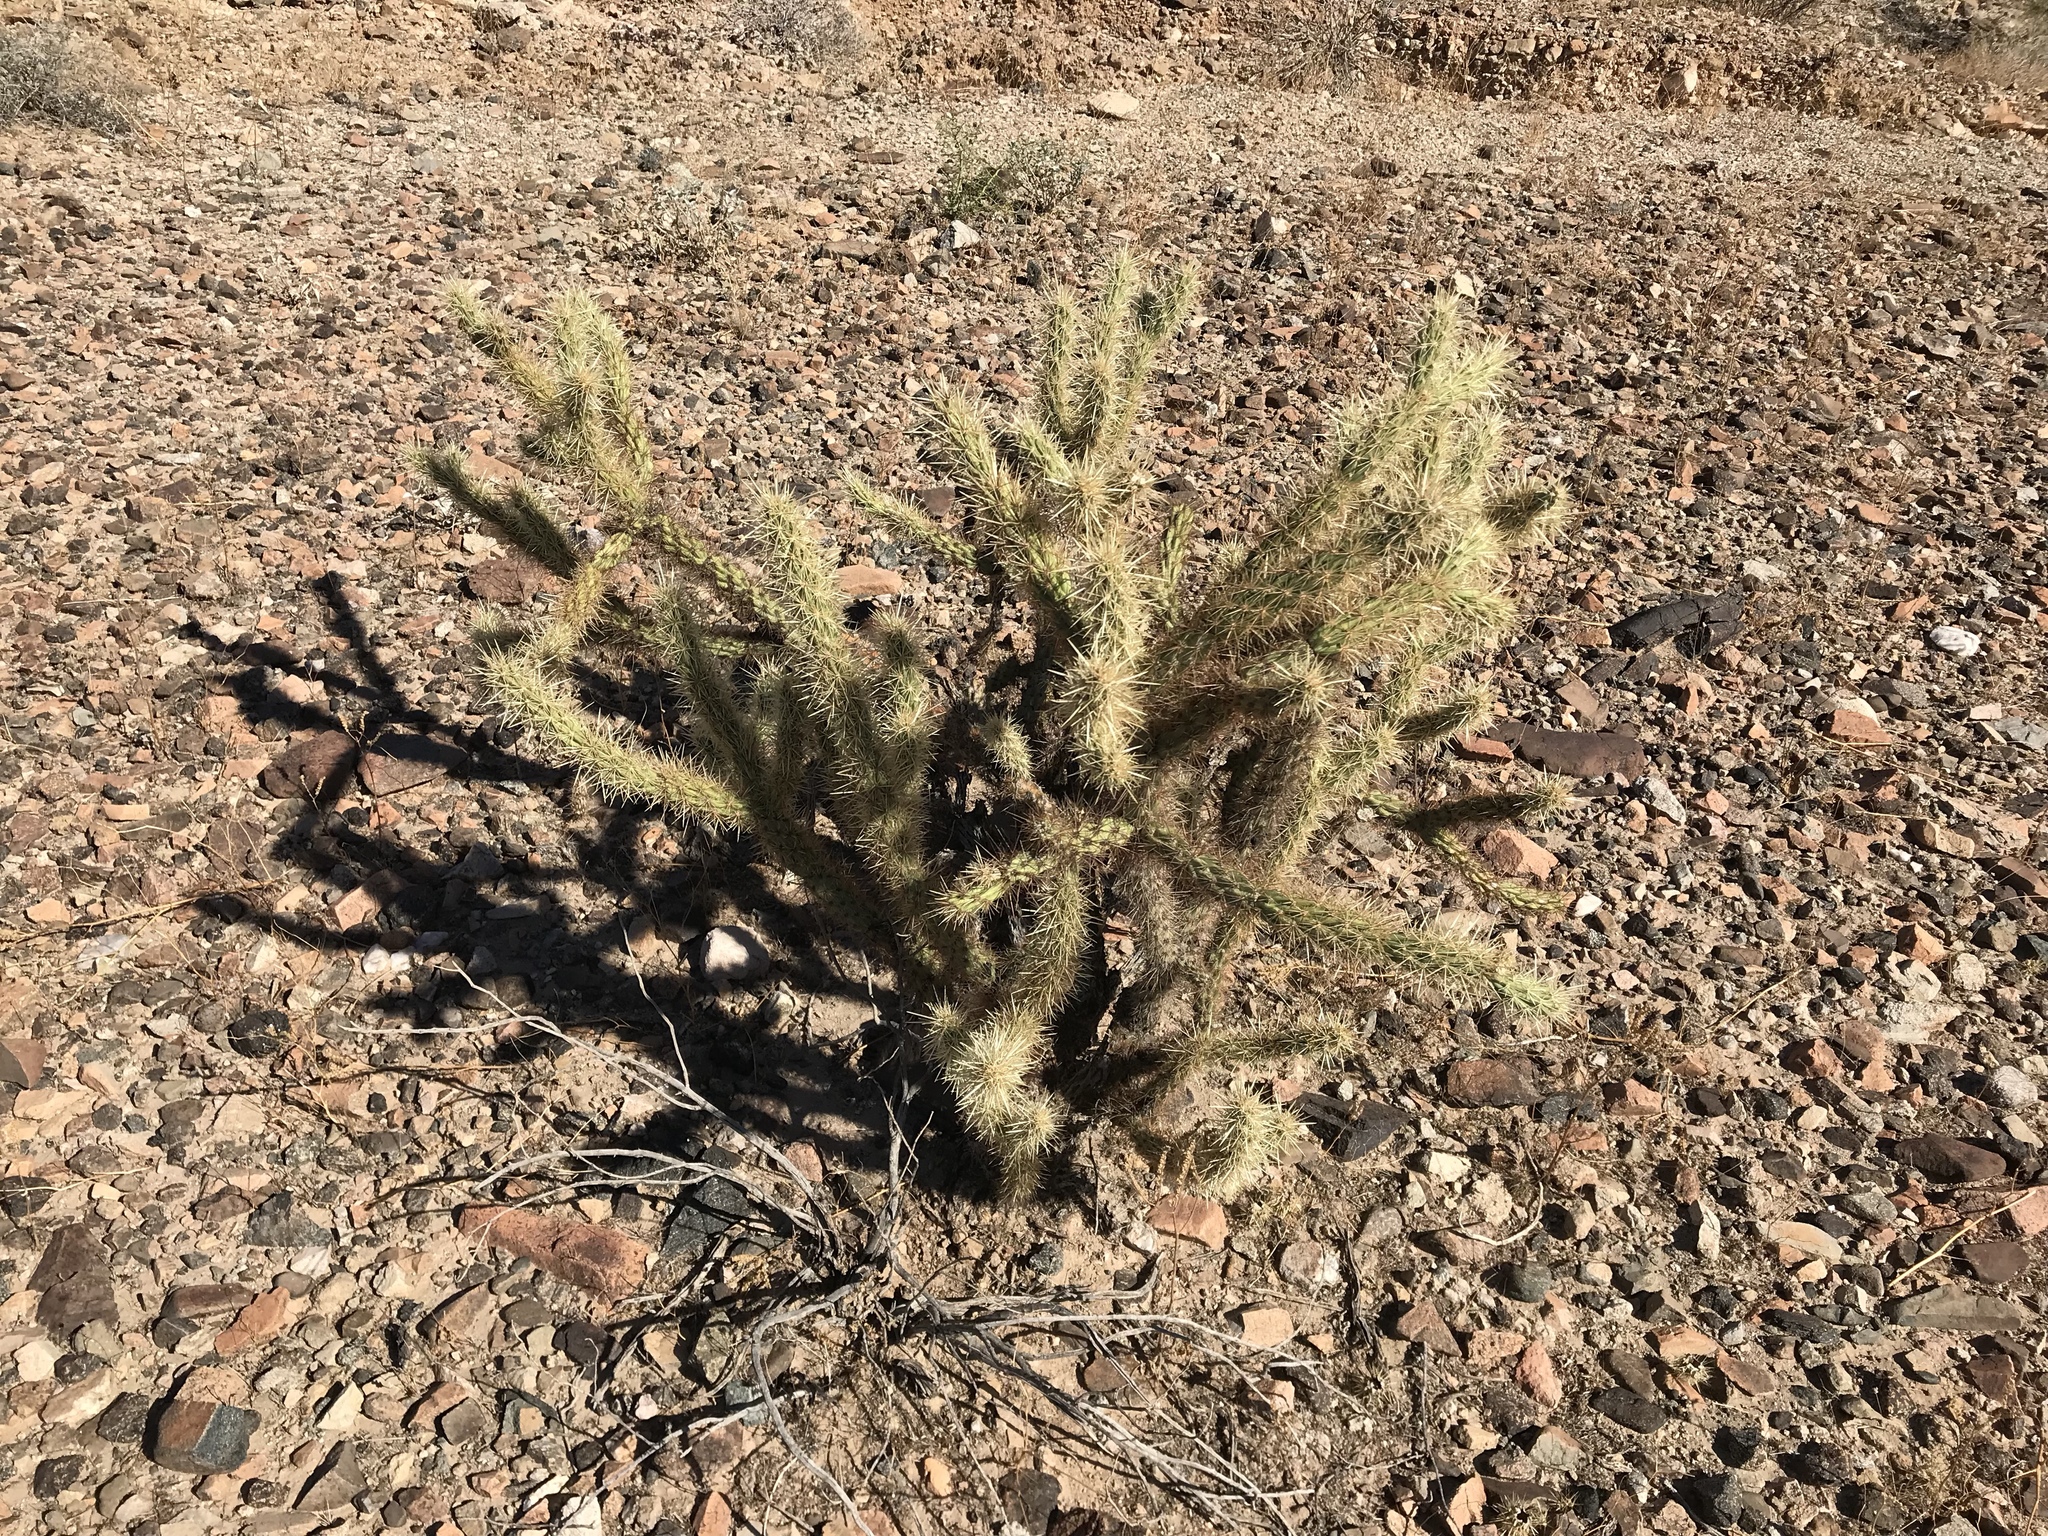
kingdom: Plantae
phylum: Tracheophyta
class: Magnoliopsida
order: Caryophyllales
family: Cactaceae
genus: Cylindropuntia
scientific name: Cylindropuntia acanthocarpa
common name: Buckhorn cholla
